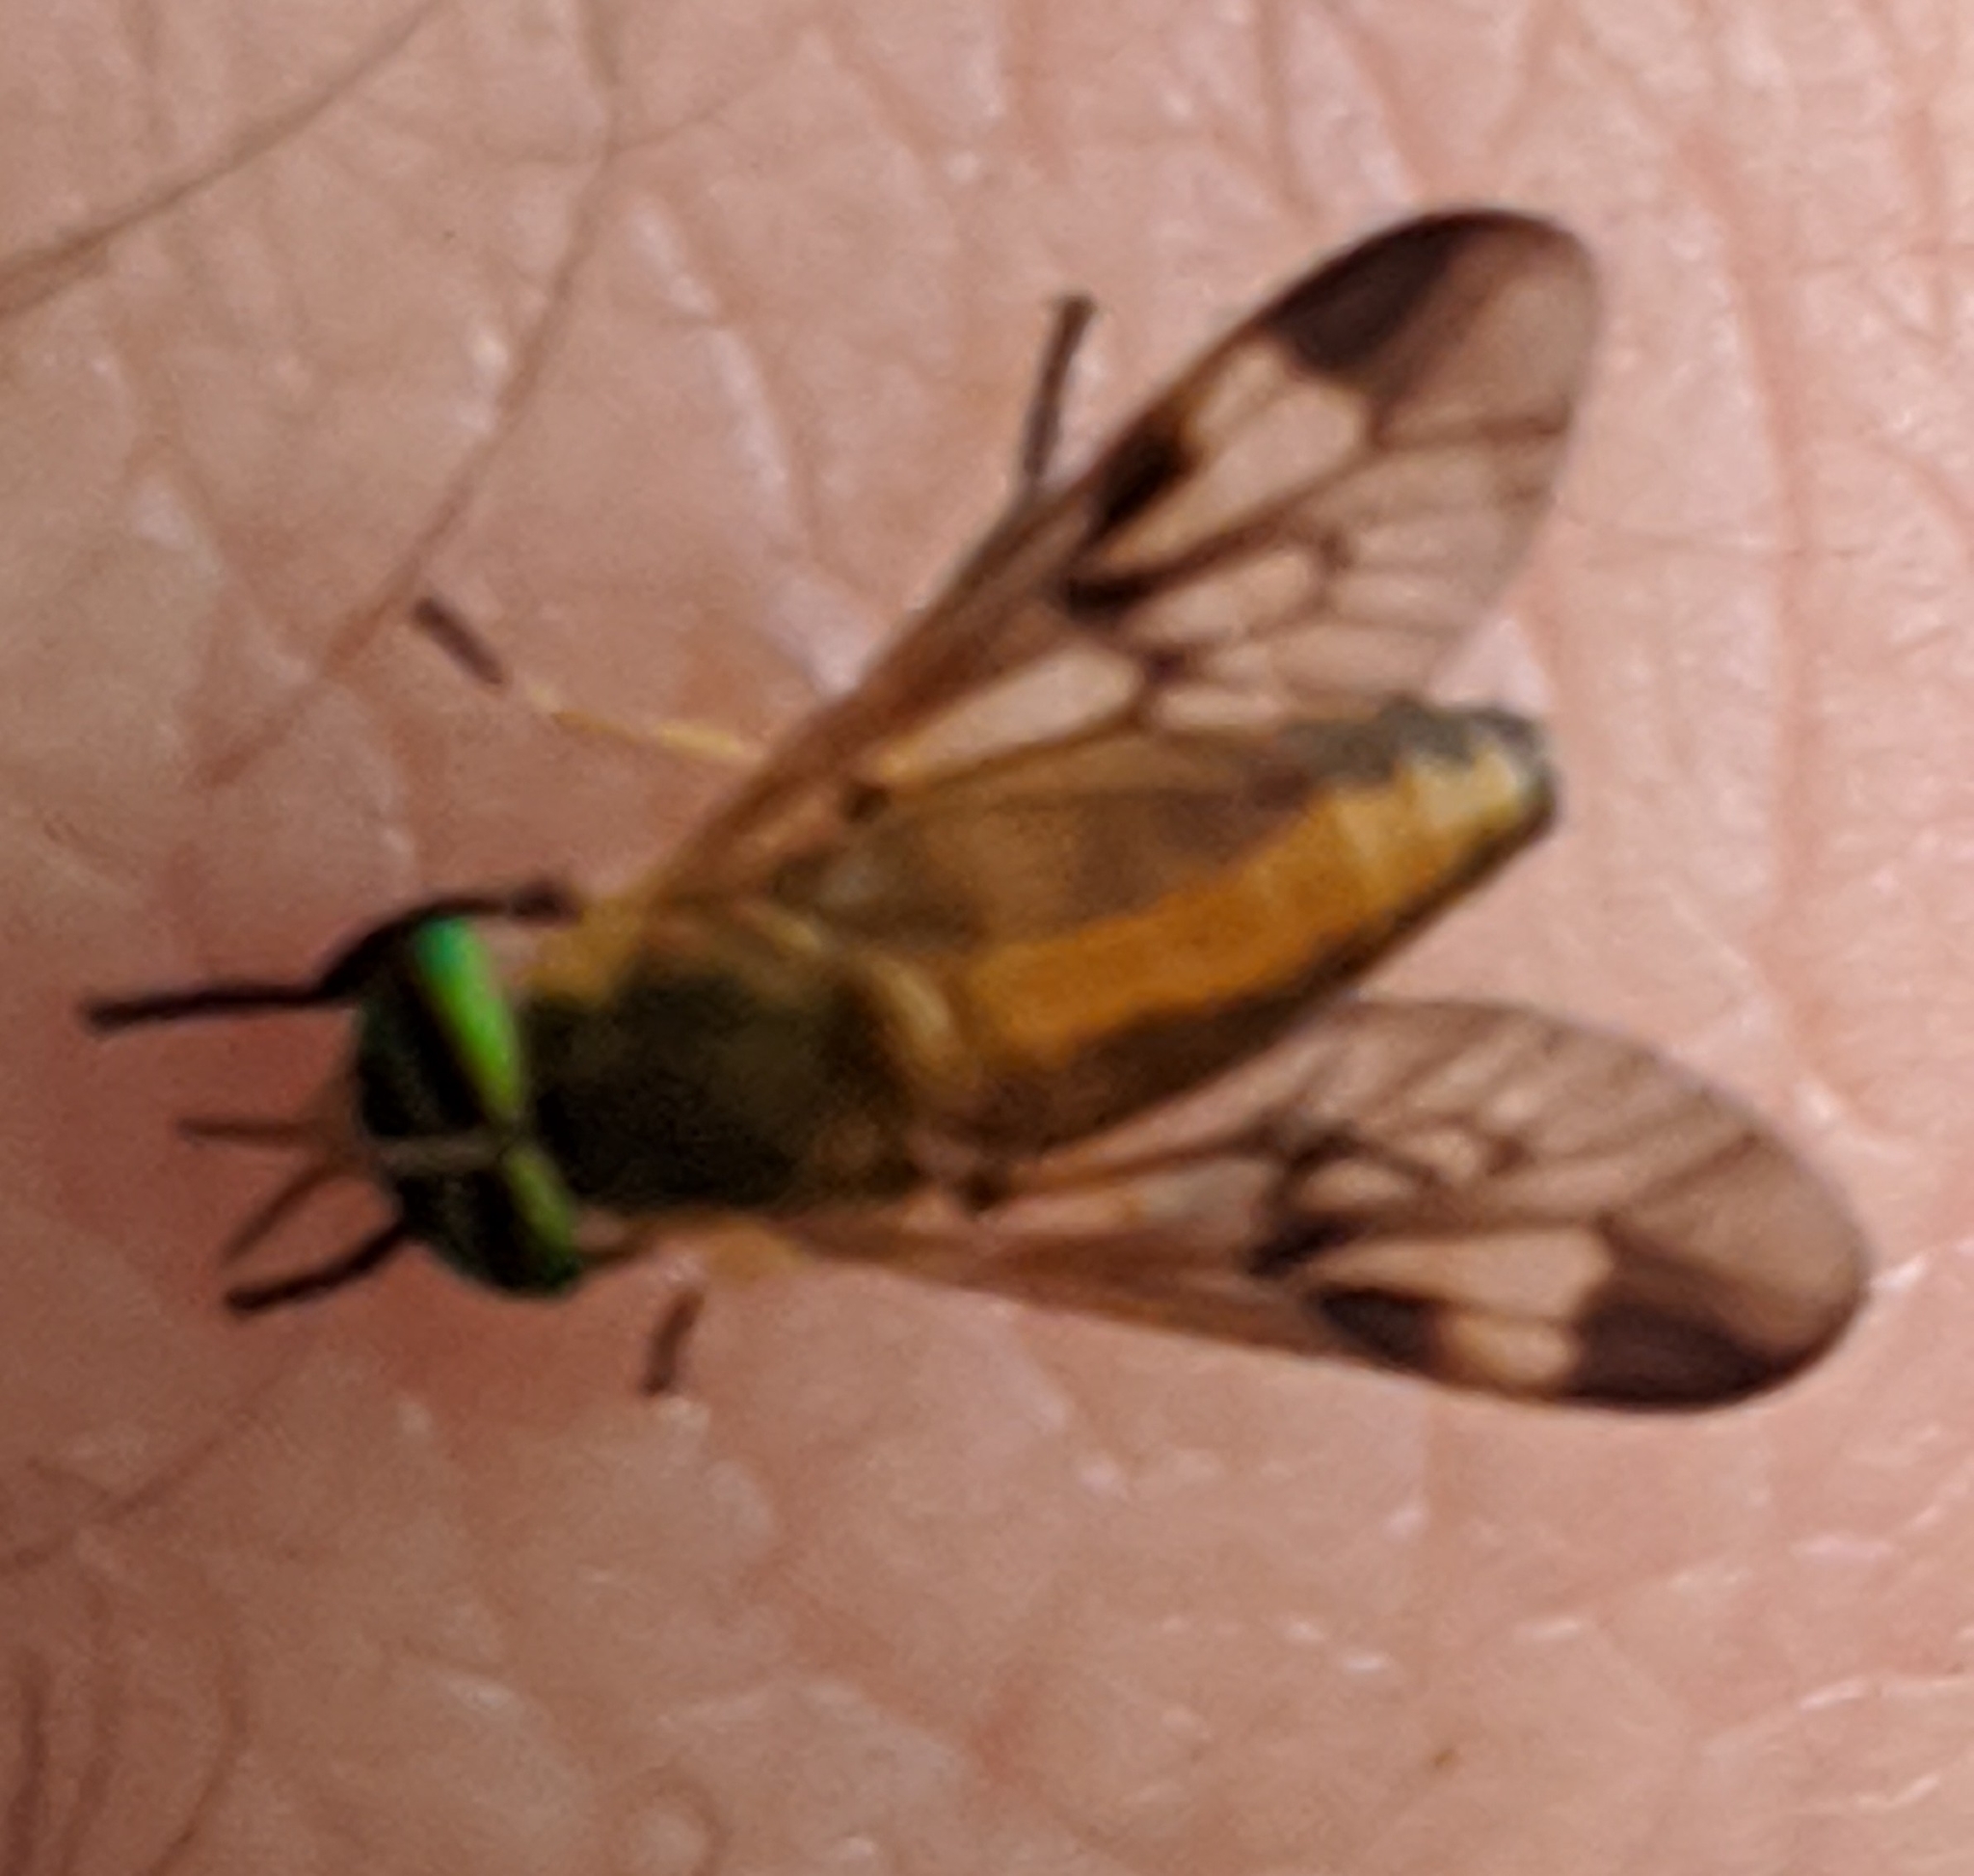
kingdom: Animalia
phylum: Arthropoda
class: Insecta
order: Diptera
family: Tabanidae
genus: Diachlorus
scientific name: Diachlorus ferrugatus
